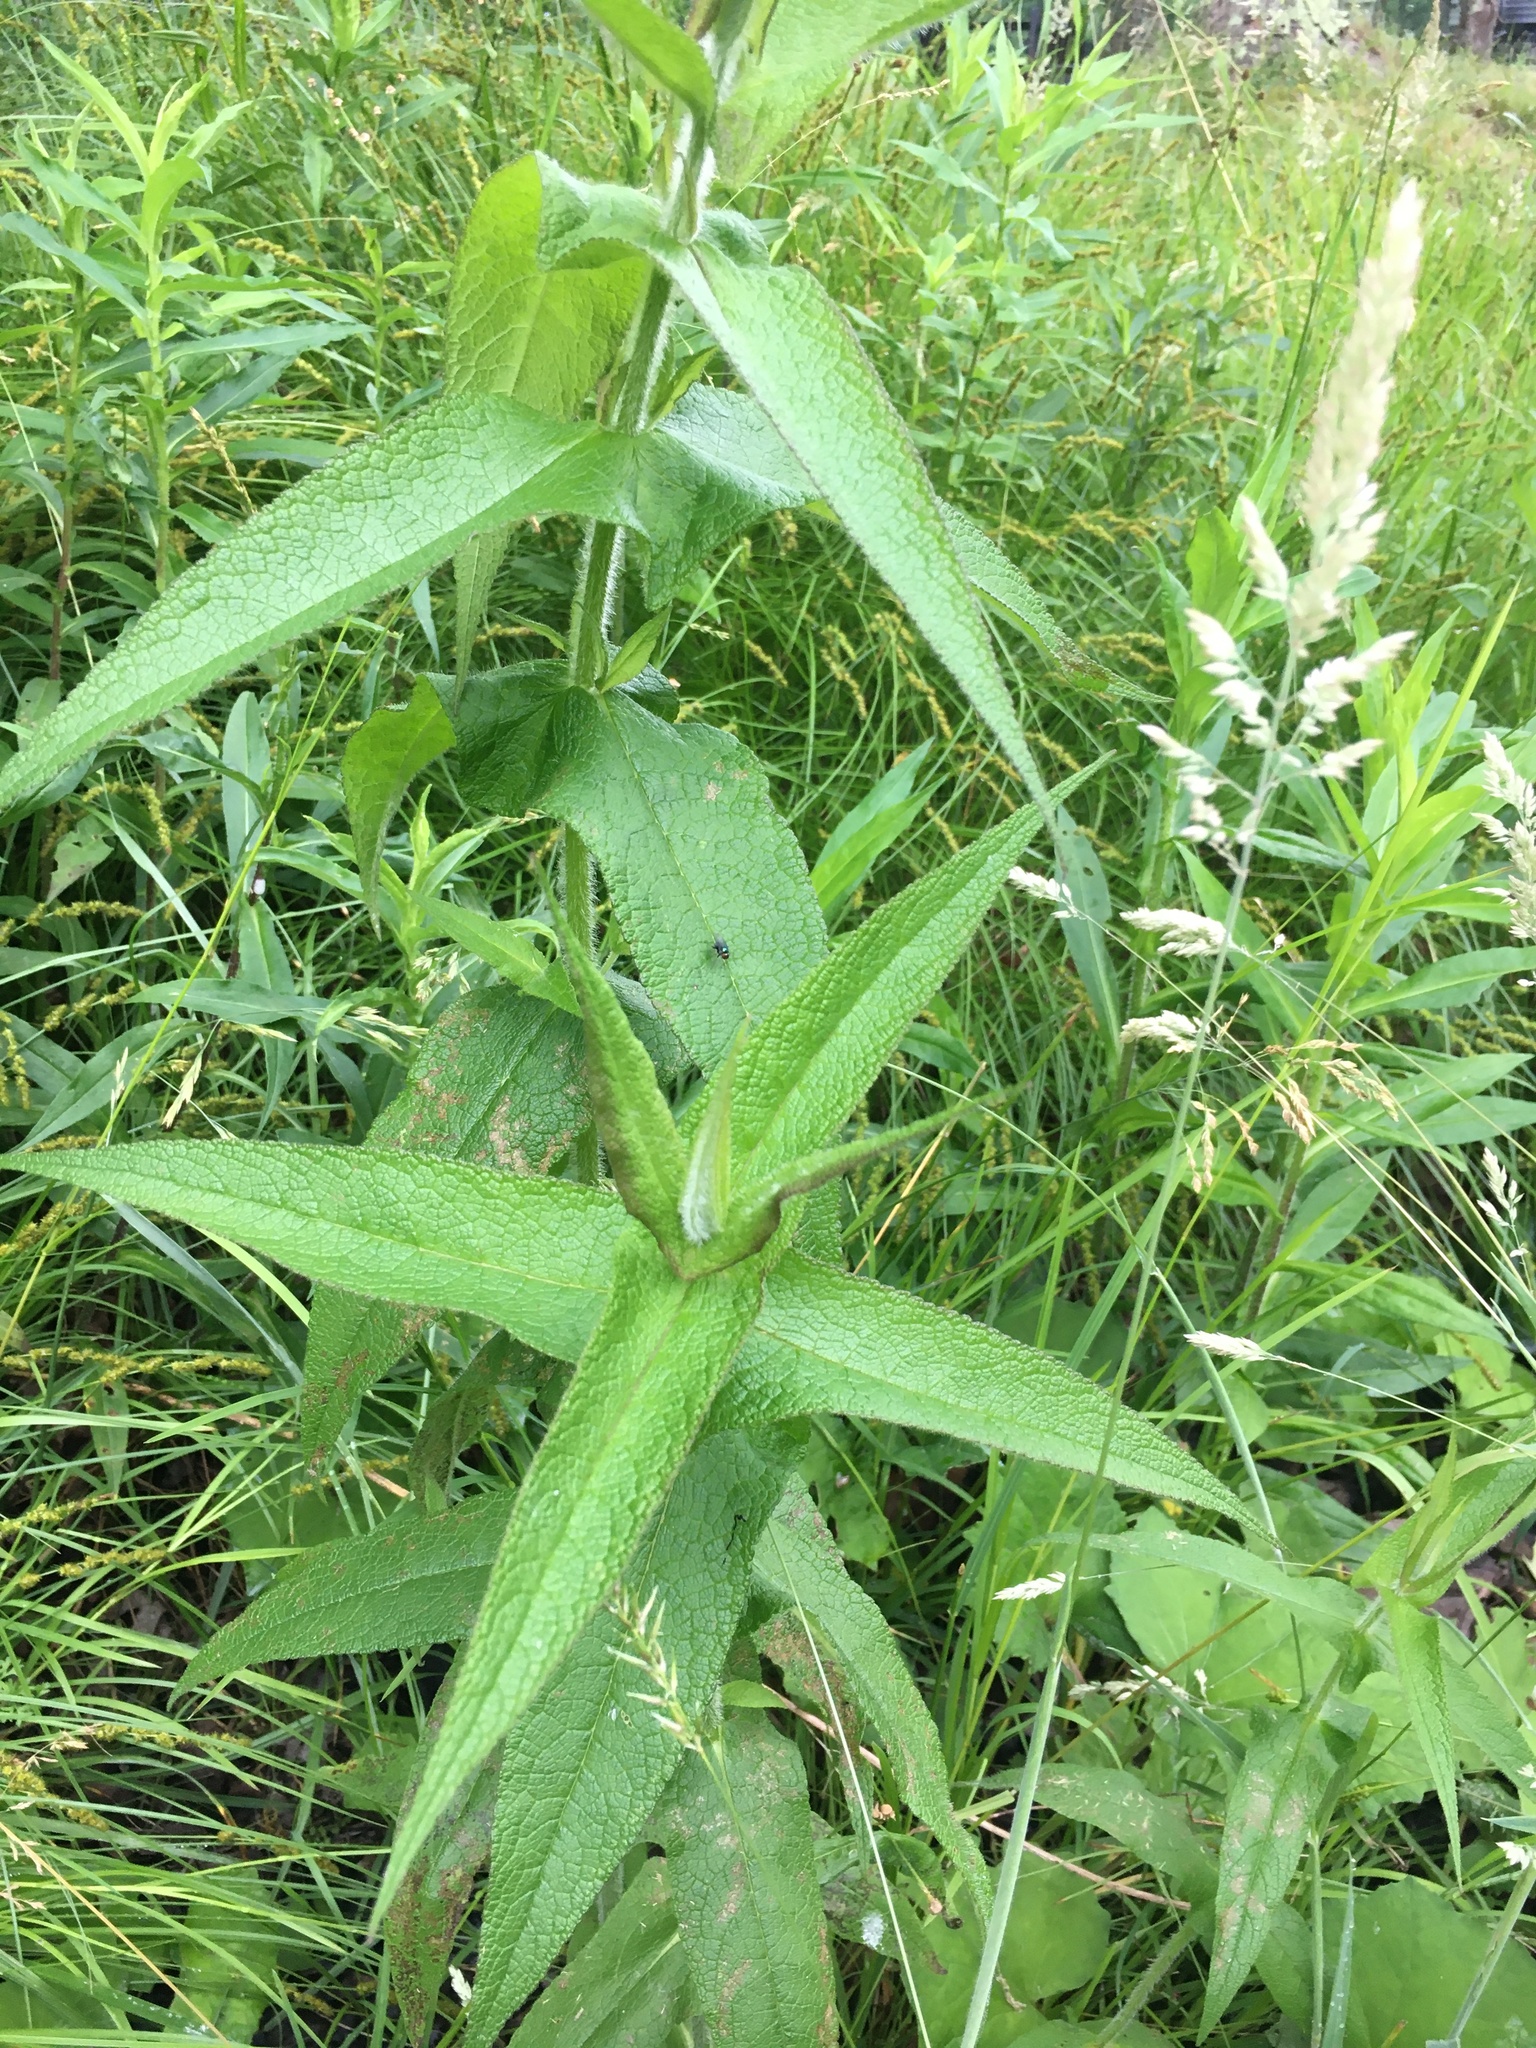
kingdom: Plantae
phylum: Tracheophyta
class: Magnoliopsida
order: Asterales
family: Asteraceae
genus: Eupatorium
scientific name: Eupatorium perfoliatum
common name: Boneset
